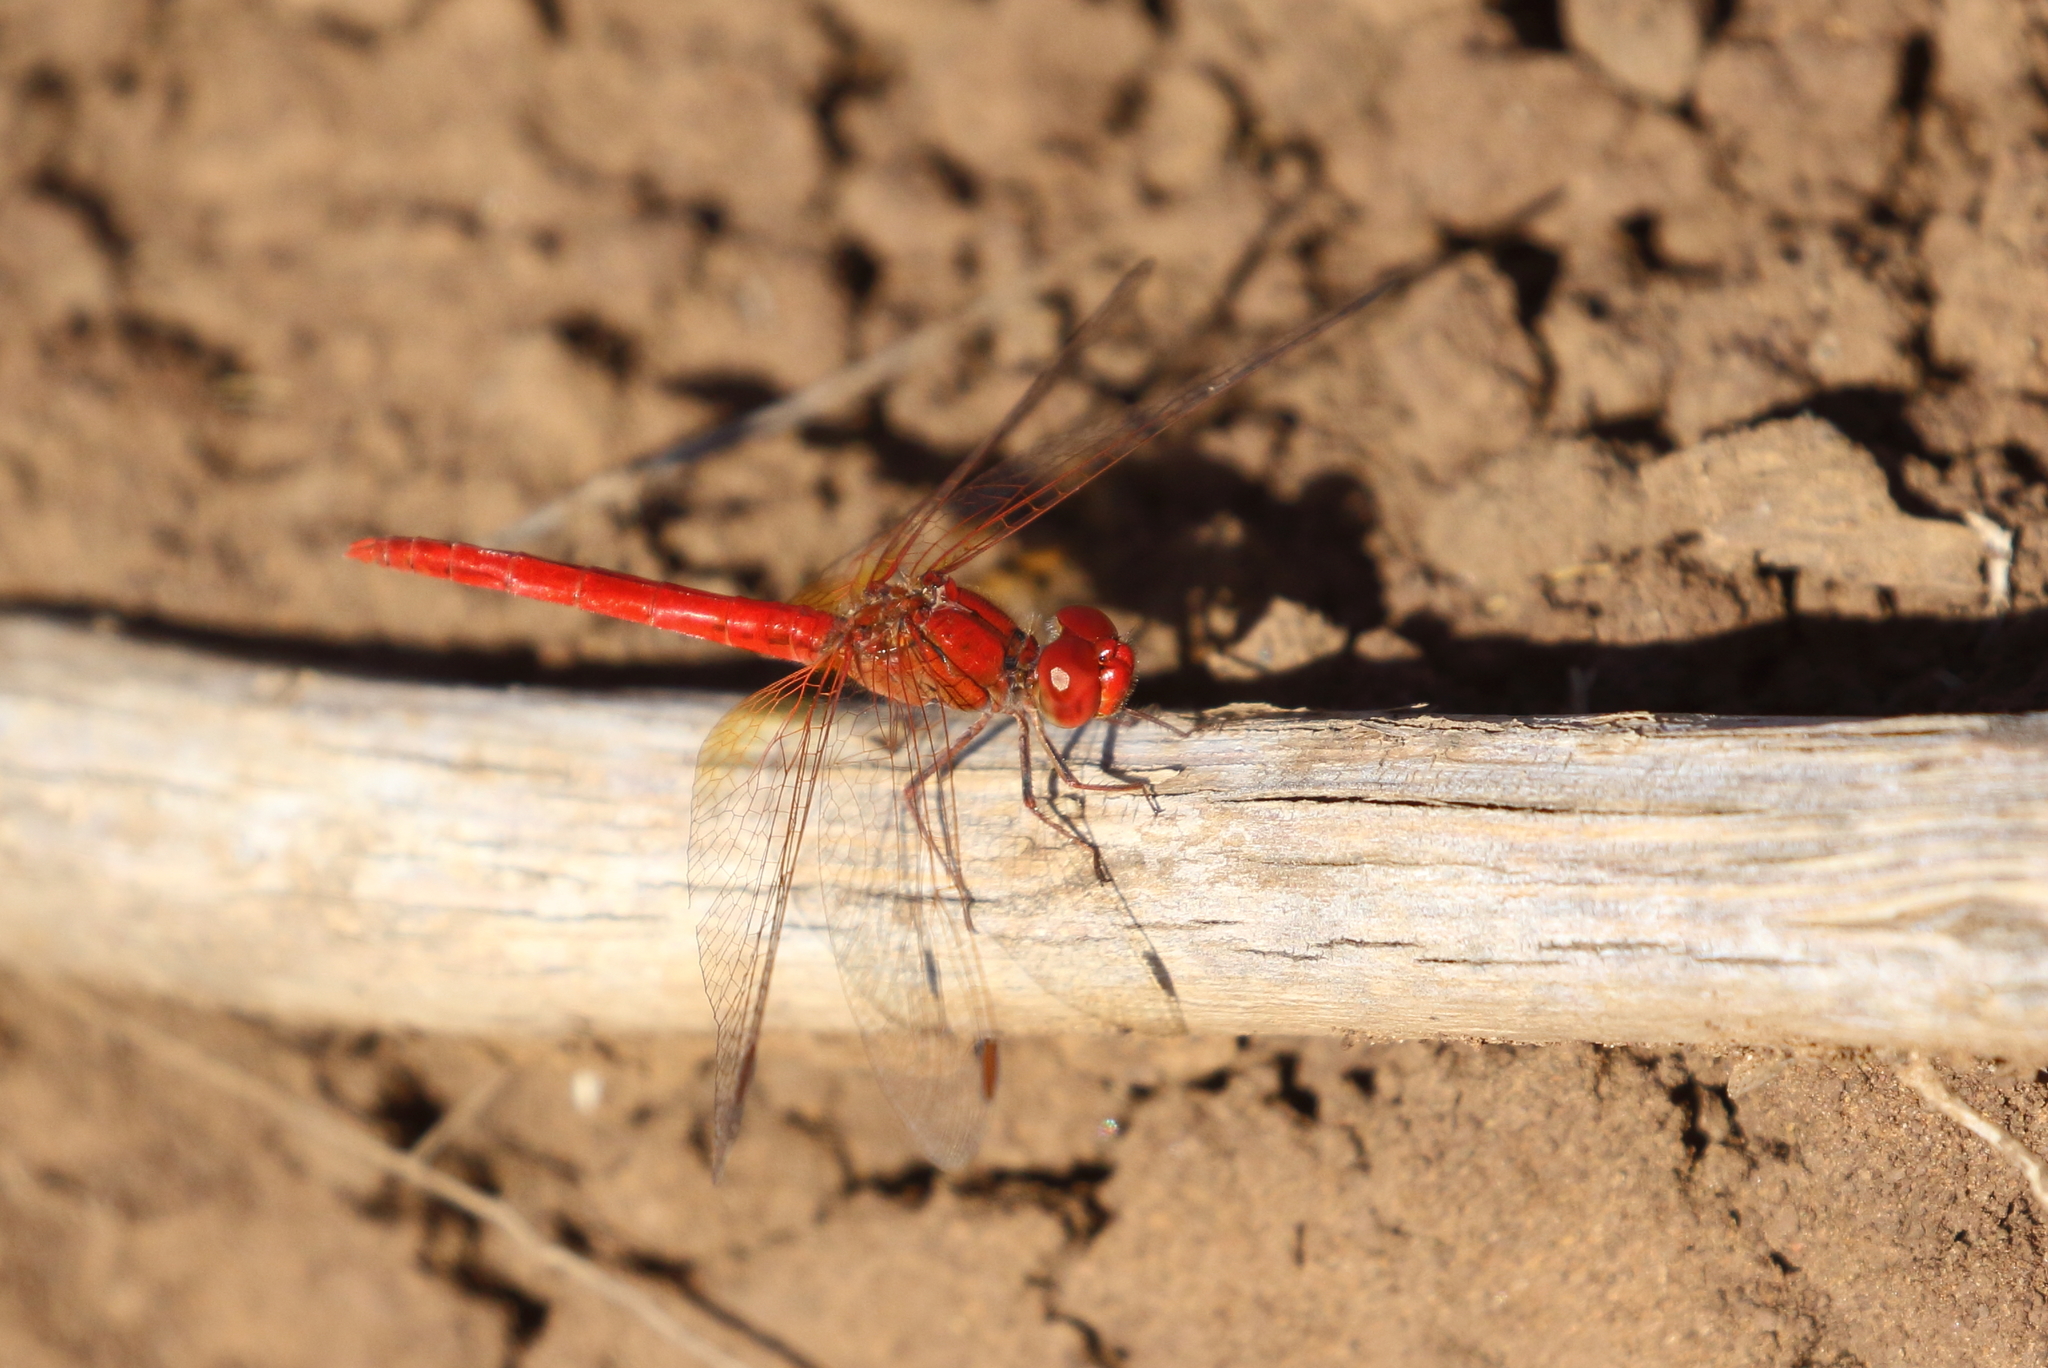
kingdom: Animalia
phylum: Arthropoda
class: Insecta
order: Odonata
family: Libellulidae
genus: Diplacodes
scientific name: Diplacodes haematodes
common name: Scarlet percher
